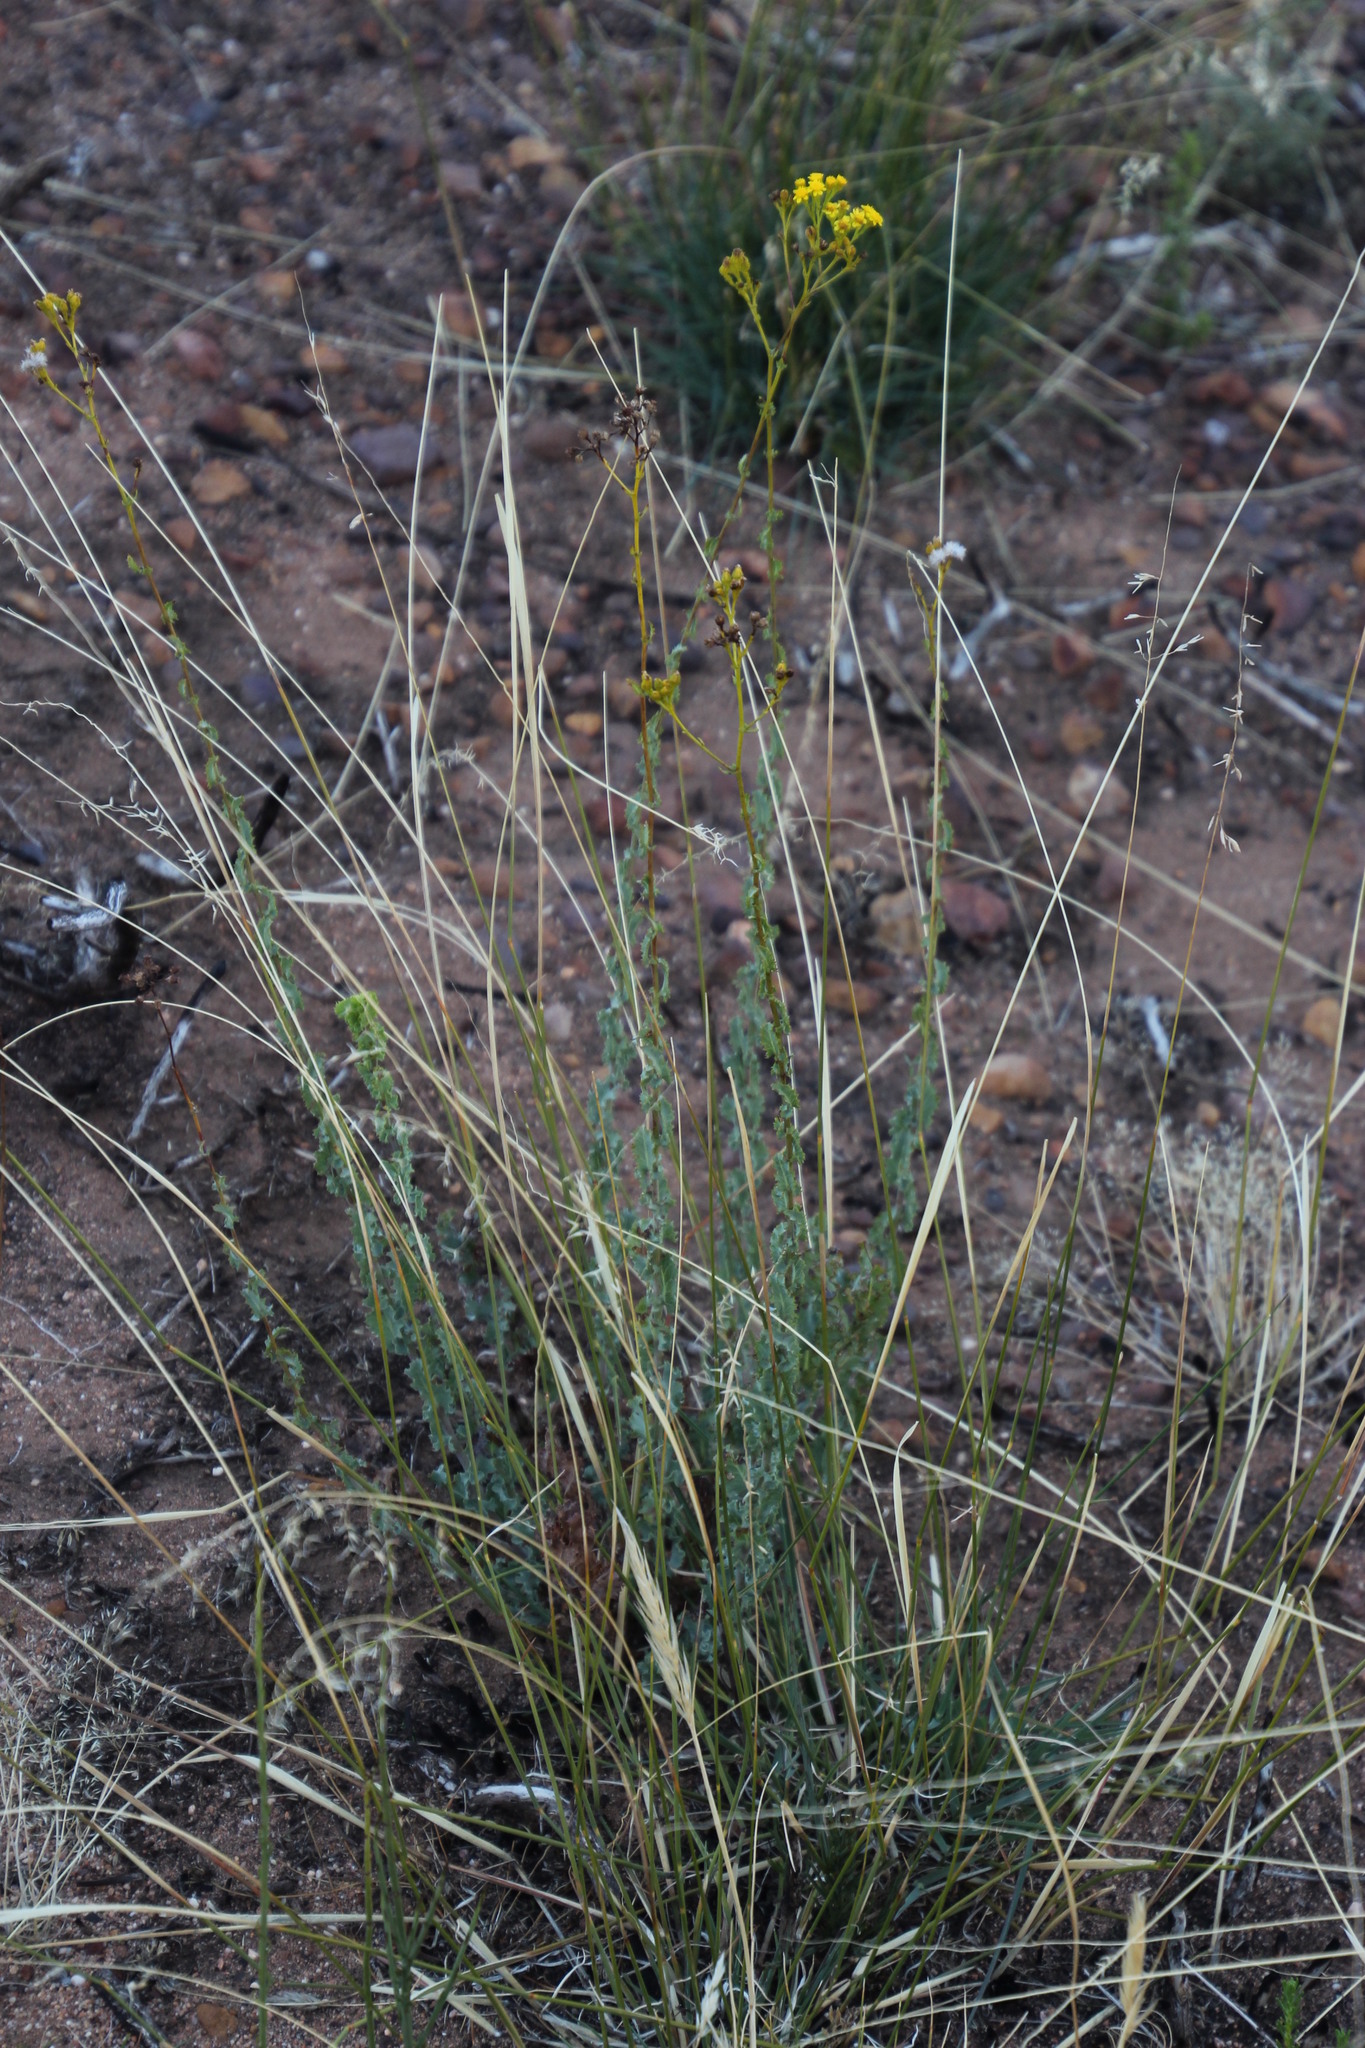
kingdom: Plantae
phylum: Tracheophyta
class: Magnoliopsida
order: Asterales
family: Asteraceae
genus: Senecio
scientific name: Senecio pubigerus
